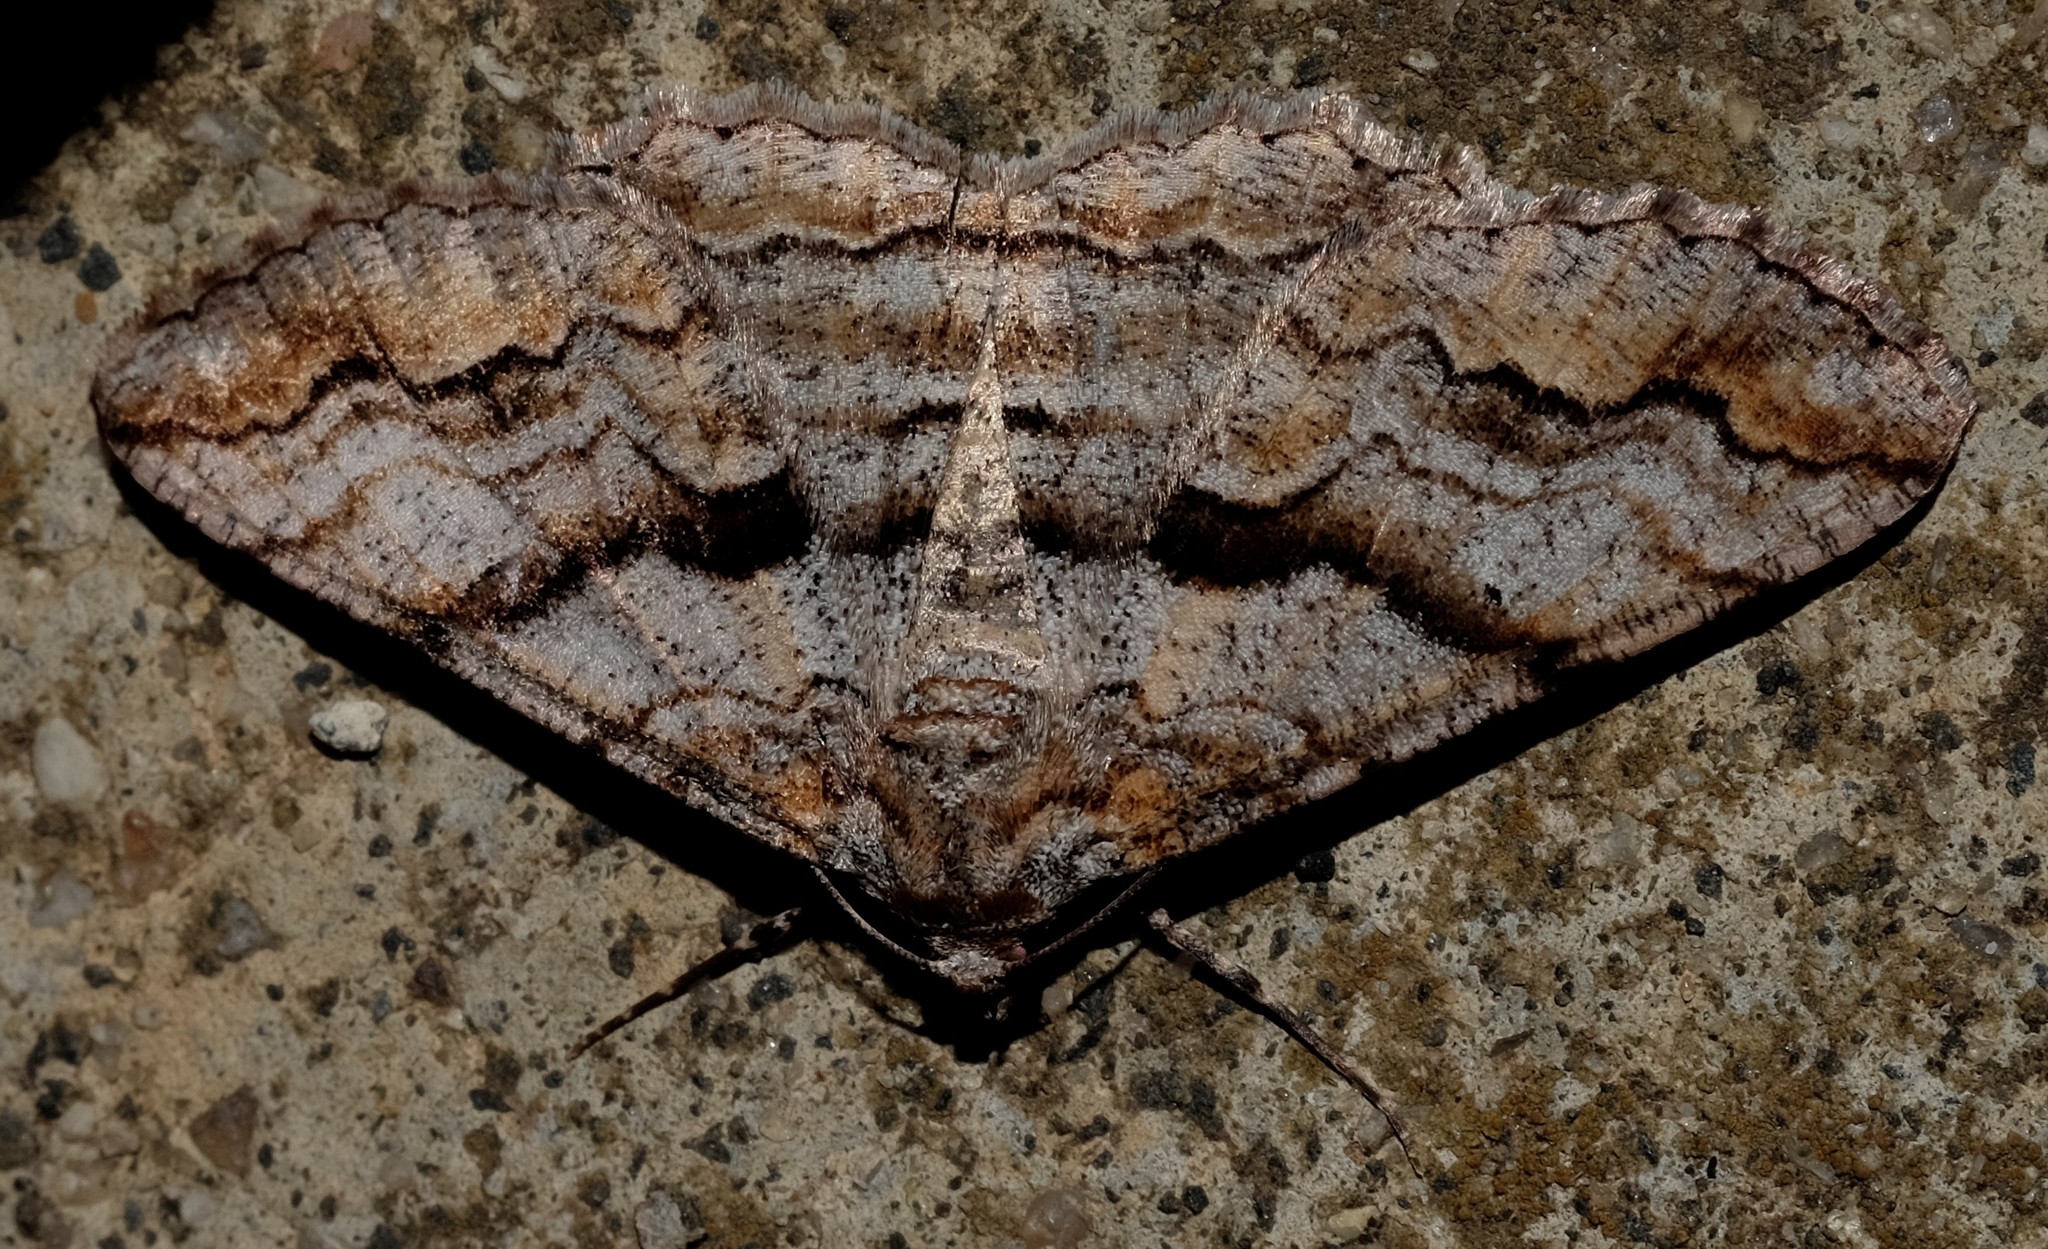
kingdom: Animalia
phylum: Arthropoda
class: Insecta
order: Lepidoptera
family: Geometridae
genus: Gastrinodes
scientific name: Gastrinodes bitaeniaria
